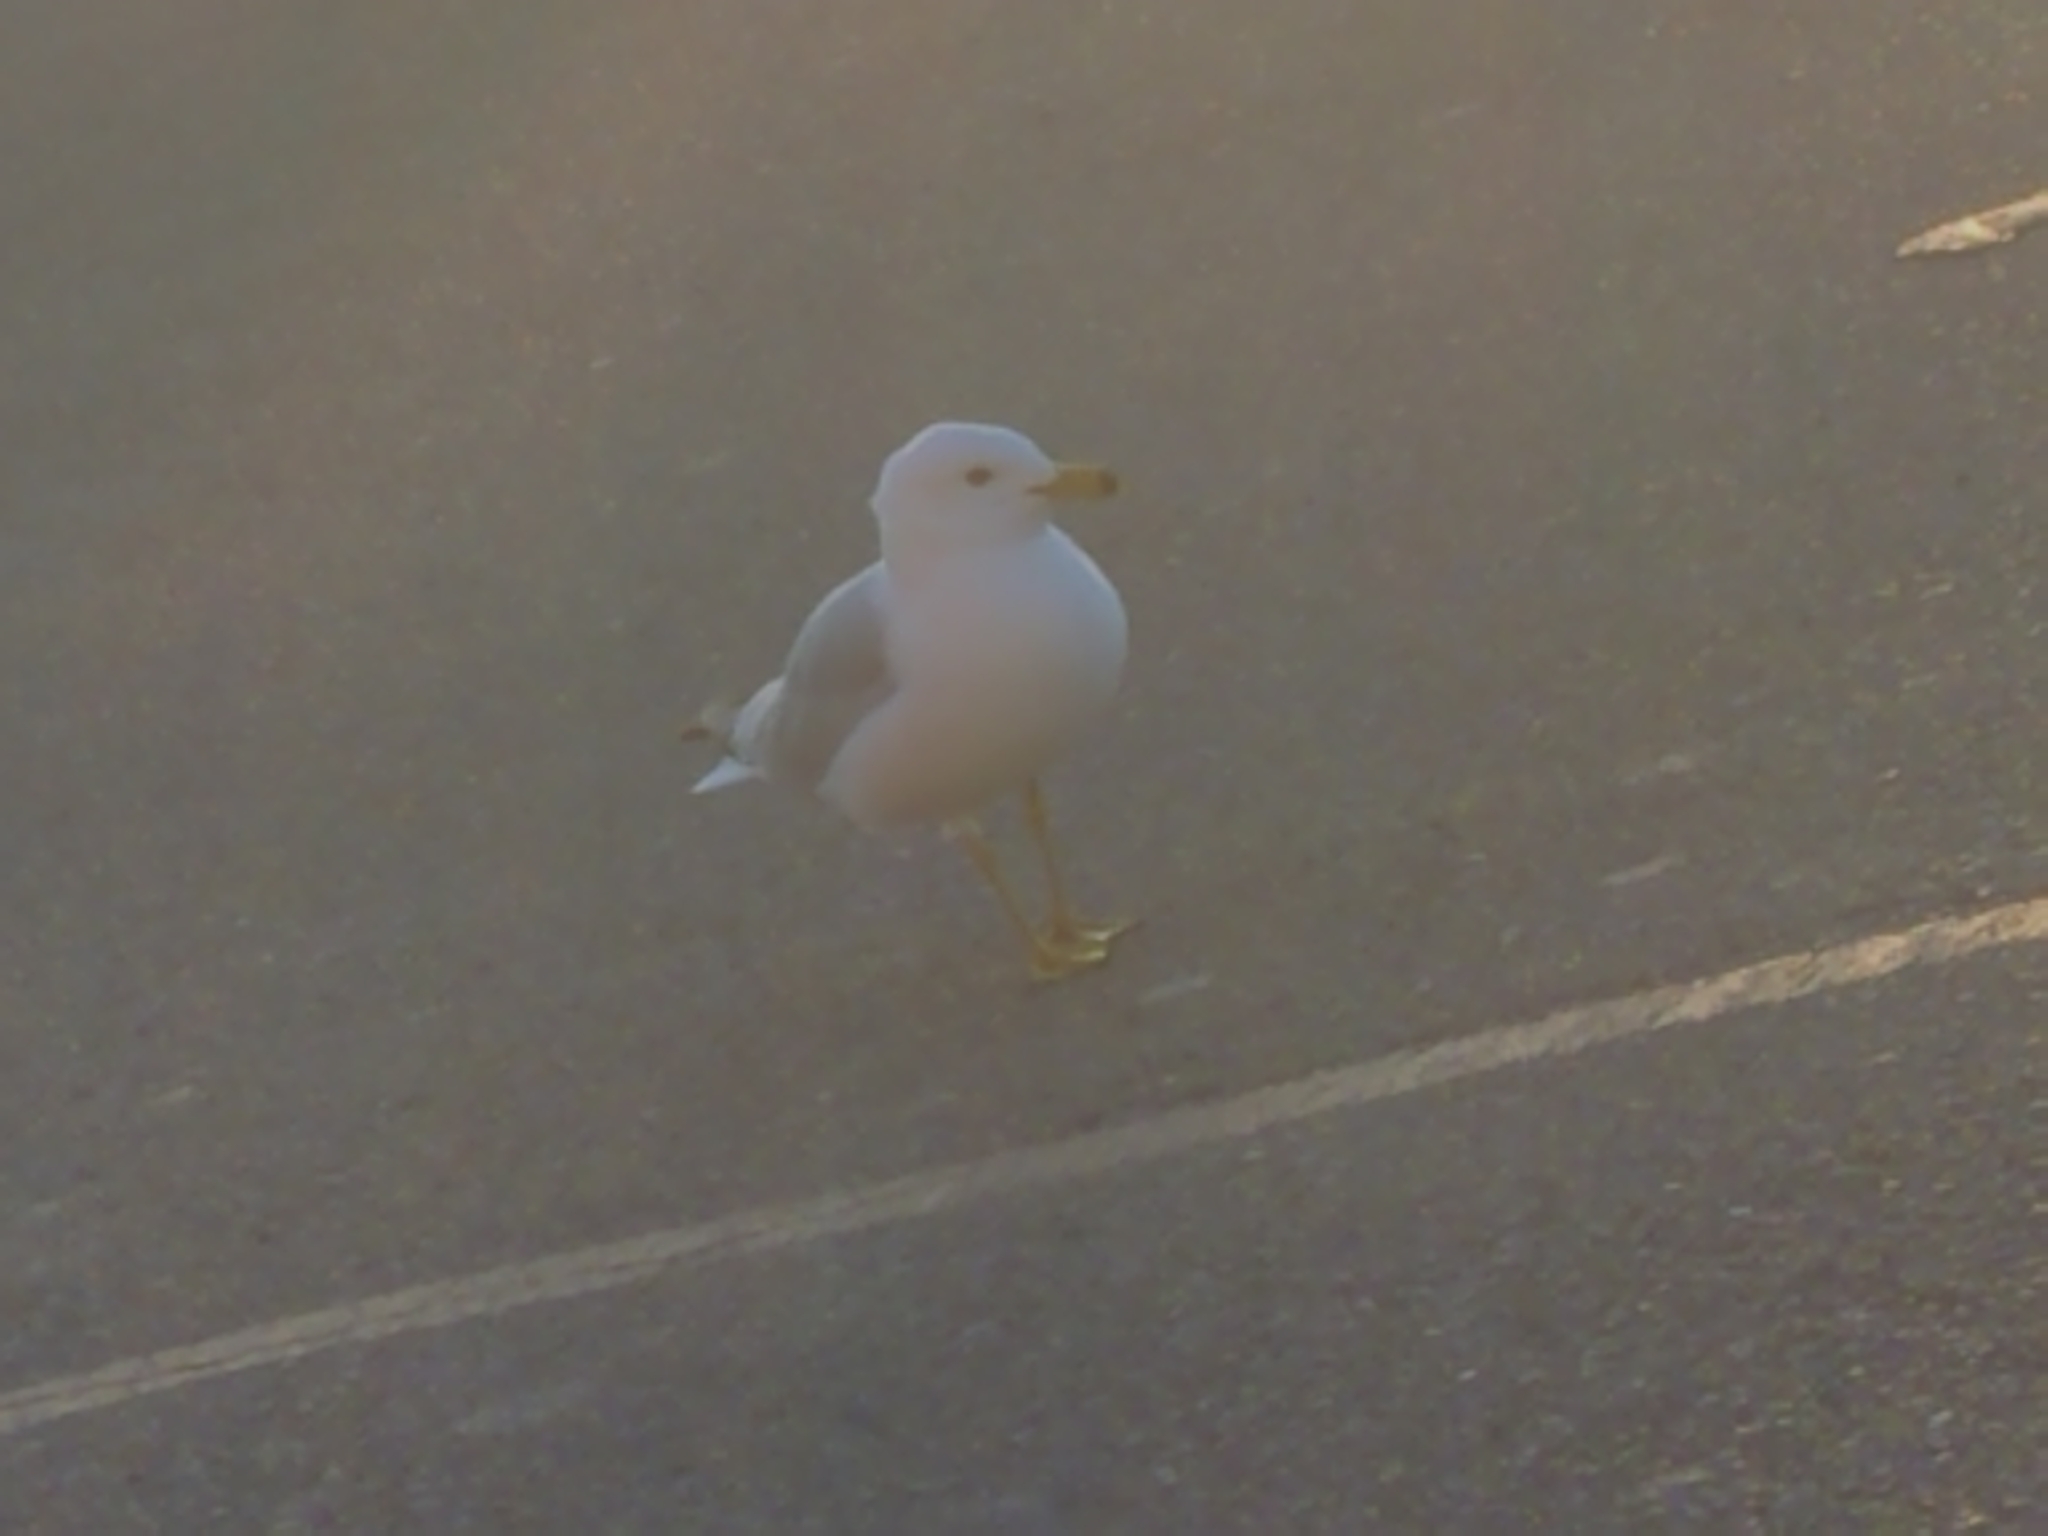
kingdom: Animalia
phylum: Chordata
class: Aves
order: Charadriiformes
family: Laridae
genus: Larus
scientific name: Larus delawarensis
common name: Ring-billed gull
